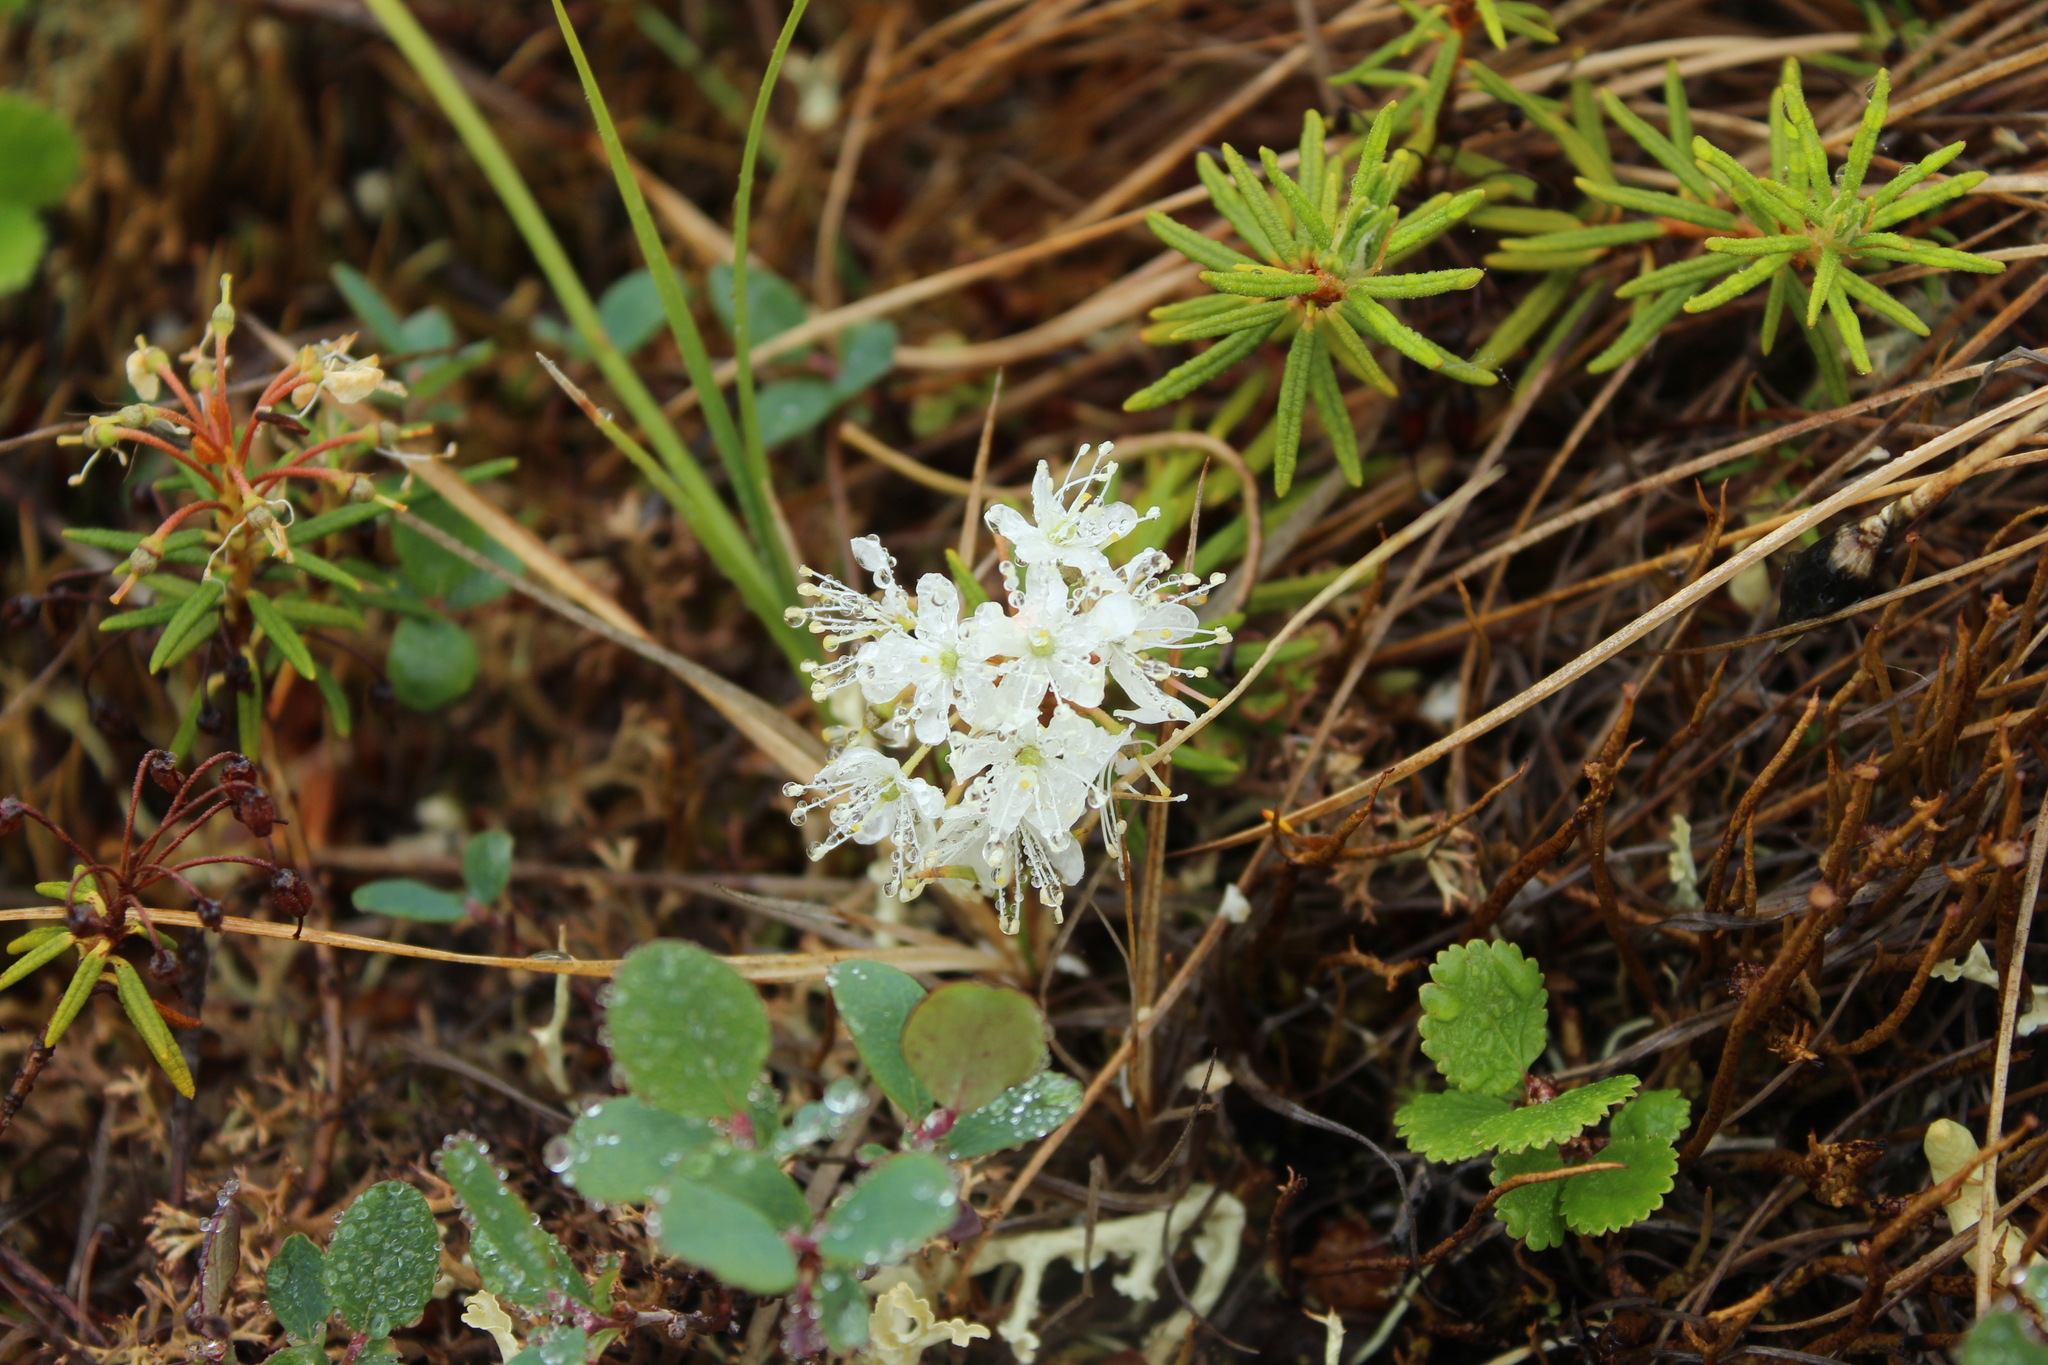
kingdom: Plantae
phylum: Tracheophyta
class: Magnoliopsida
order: Ericales
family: Ericaceae
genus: Rhododendron
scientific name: Rhododendron tomentosum
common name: Marsh labrador tea
